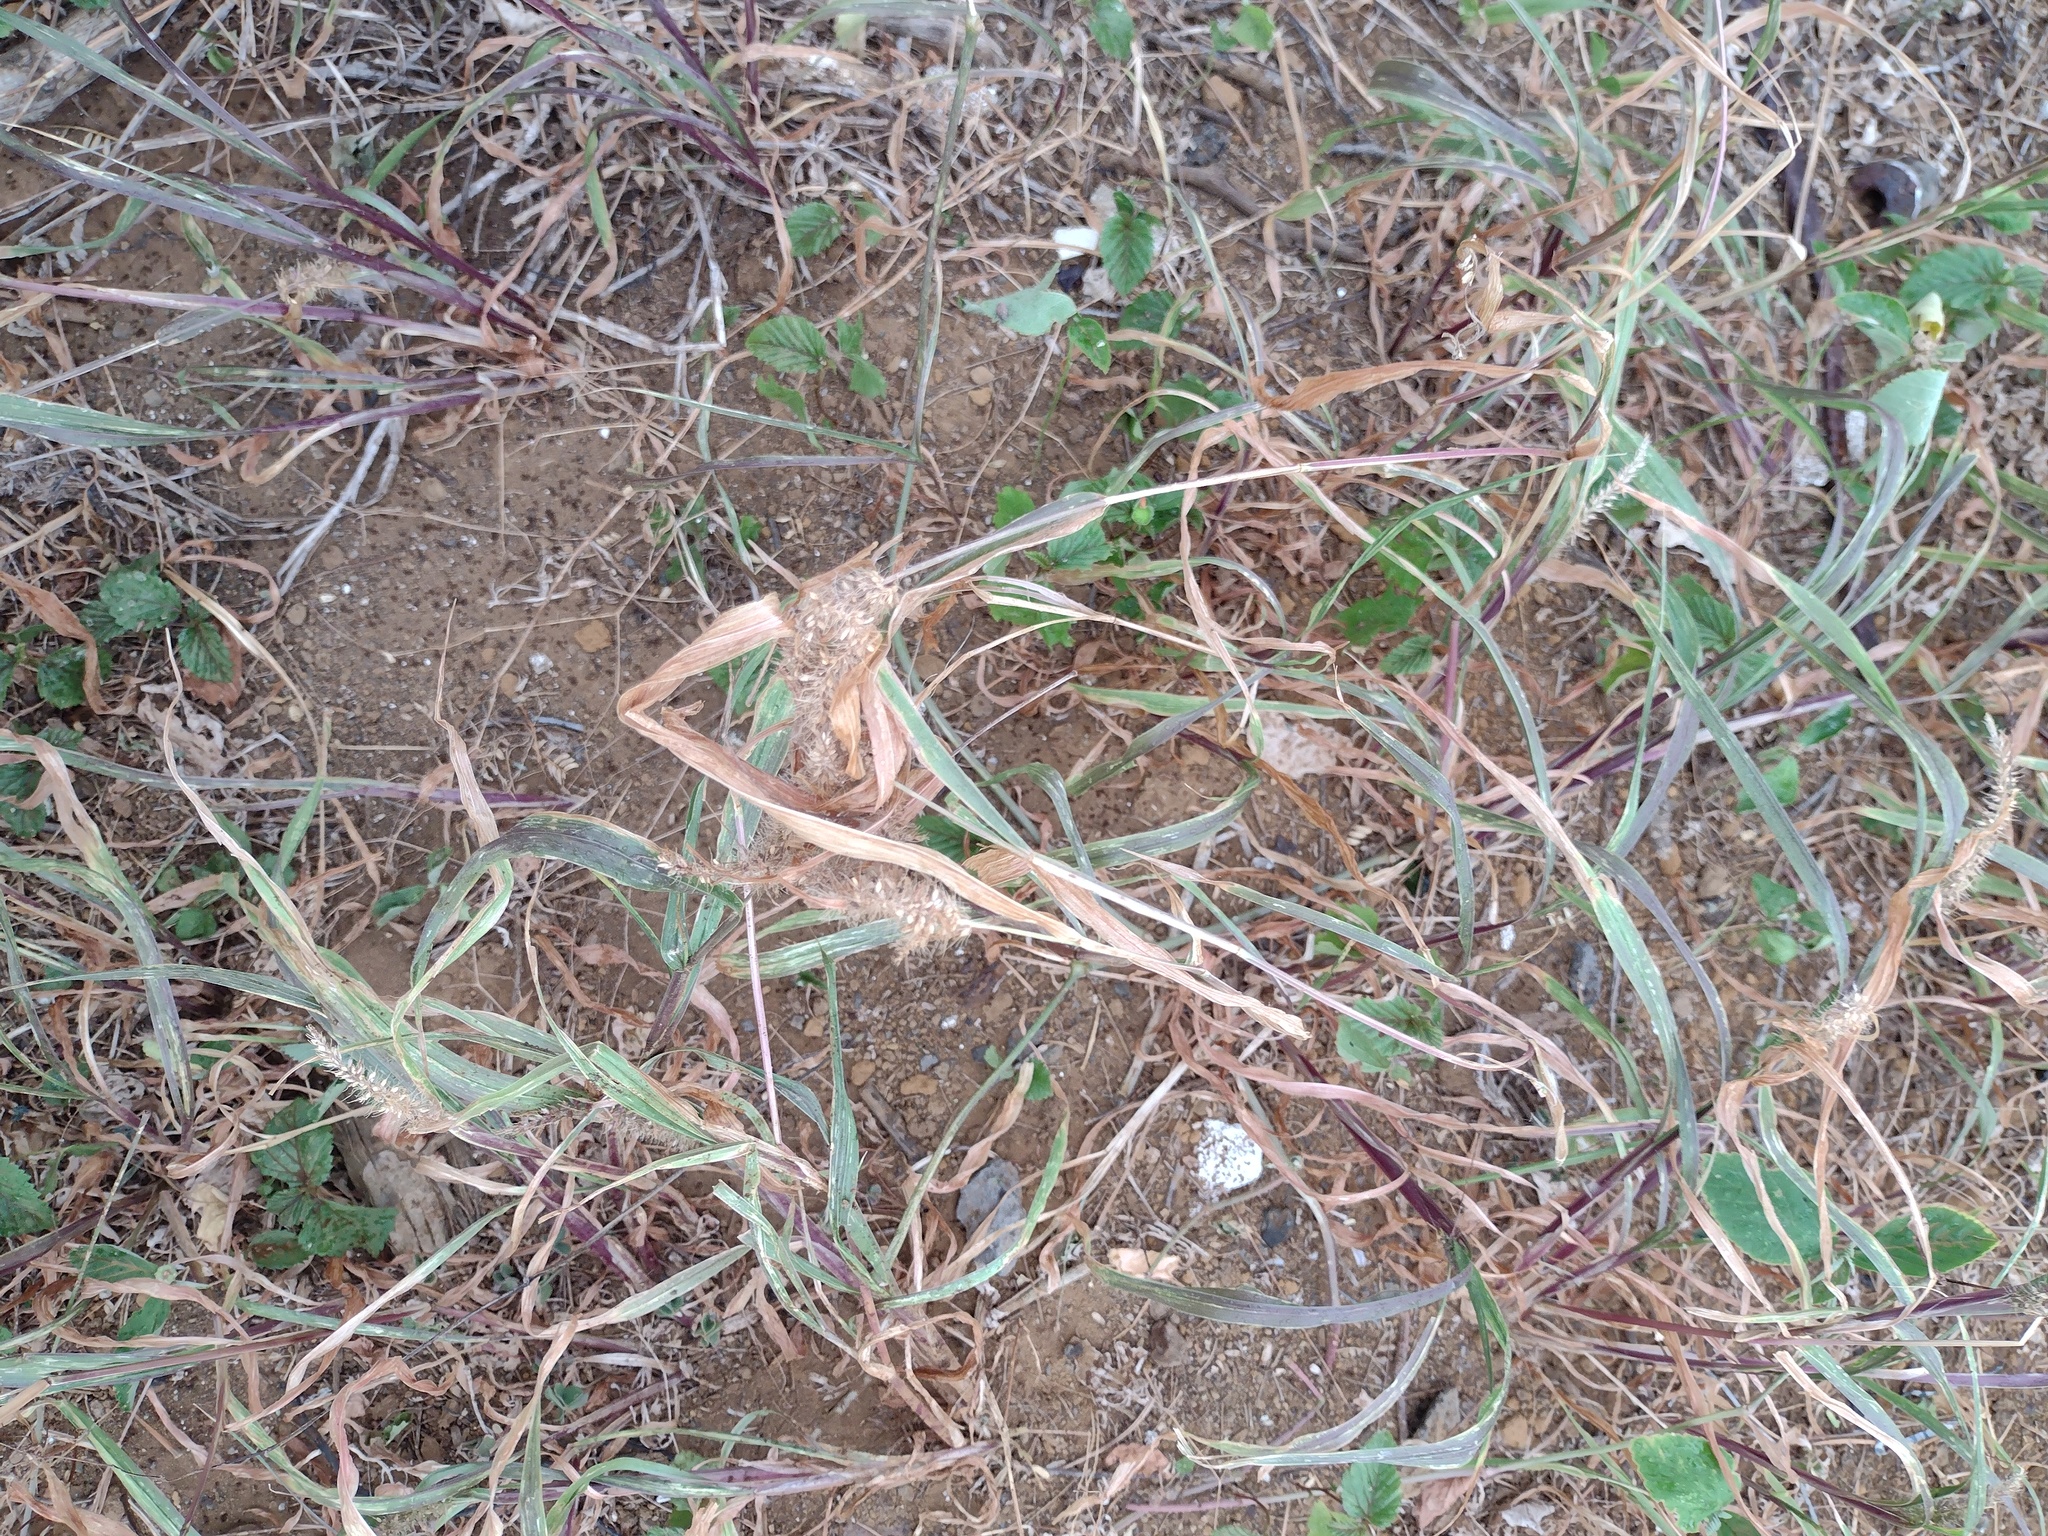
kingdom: Plantae
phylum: Tracheophyta
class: Liliopsida
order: Poales
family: Poaceae
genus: Setaria
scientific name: Setaria adhaerens
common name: Adherent bristle-grass
